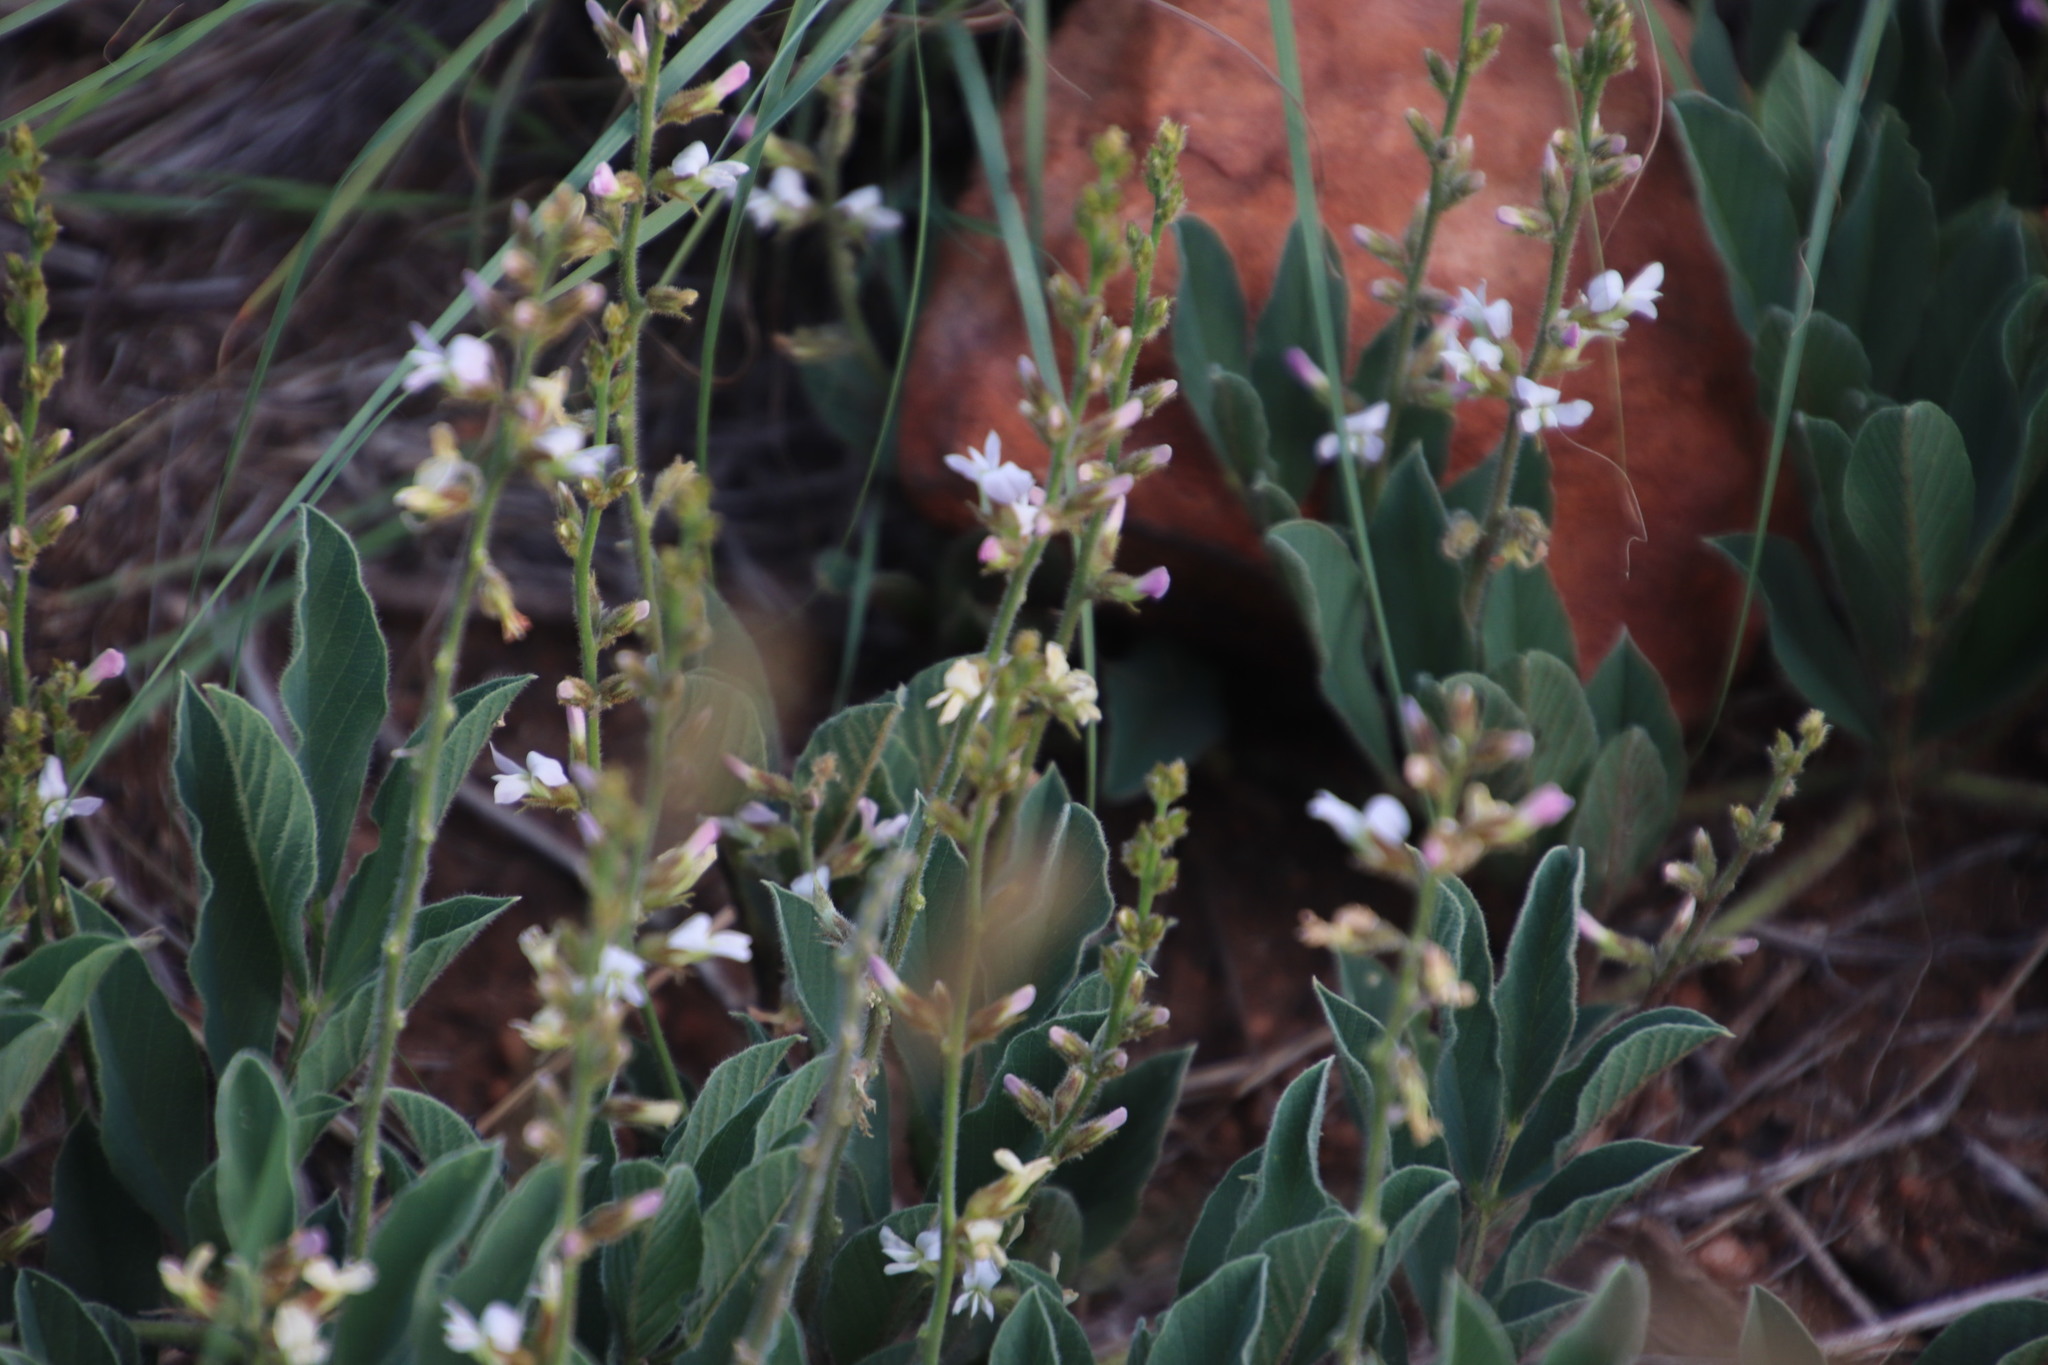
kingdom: Plantae
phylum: Tracheophyta
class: Magnoliopsida
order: Fabales
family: Fabaceae
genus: Ophrestia
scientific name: Ophrestia oblongifolia
